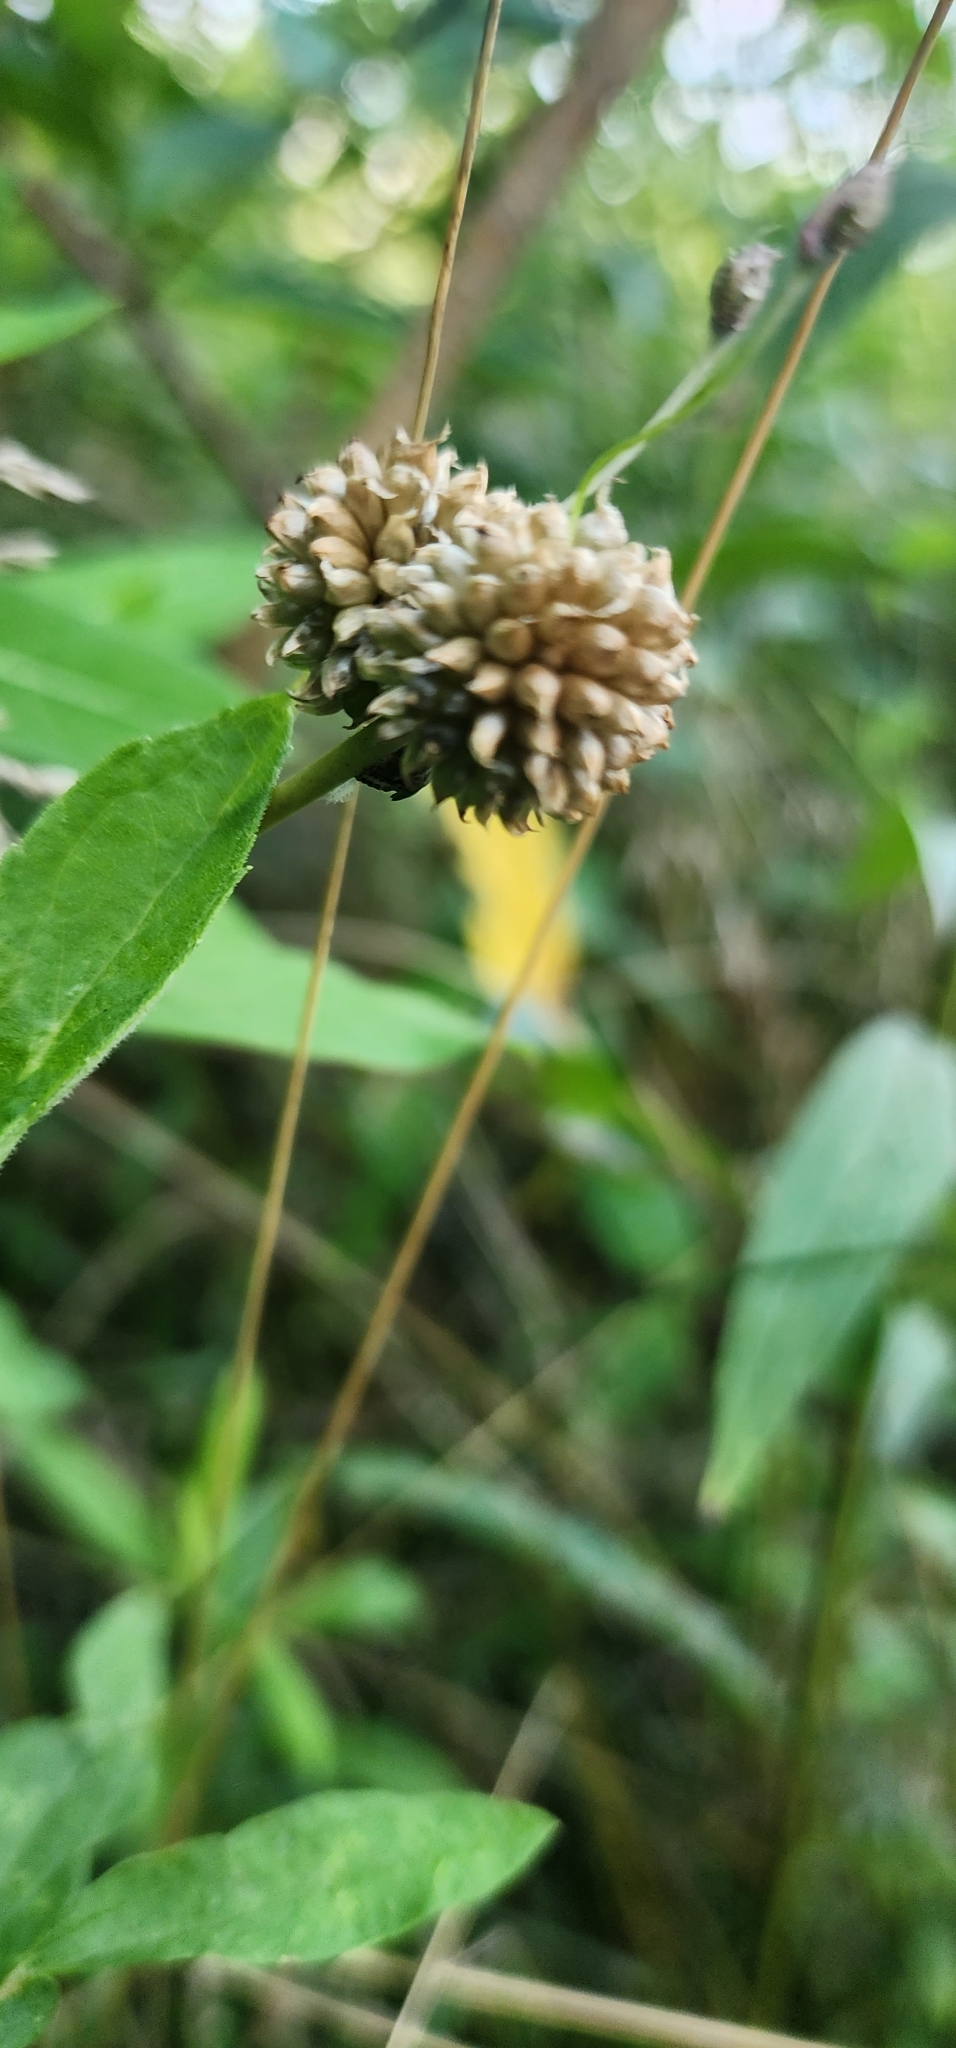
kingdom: Plantae
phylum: Tracheophyta
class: Liliopsida
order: Asparagales
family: Amaryllidaceae
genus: Allium
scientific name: Allium vineale
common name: Crow garlic
